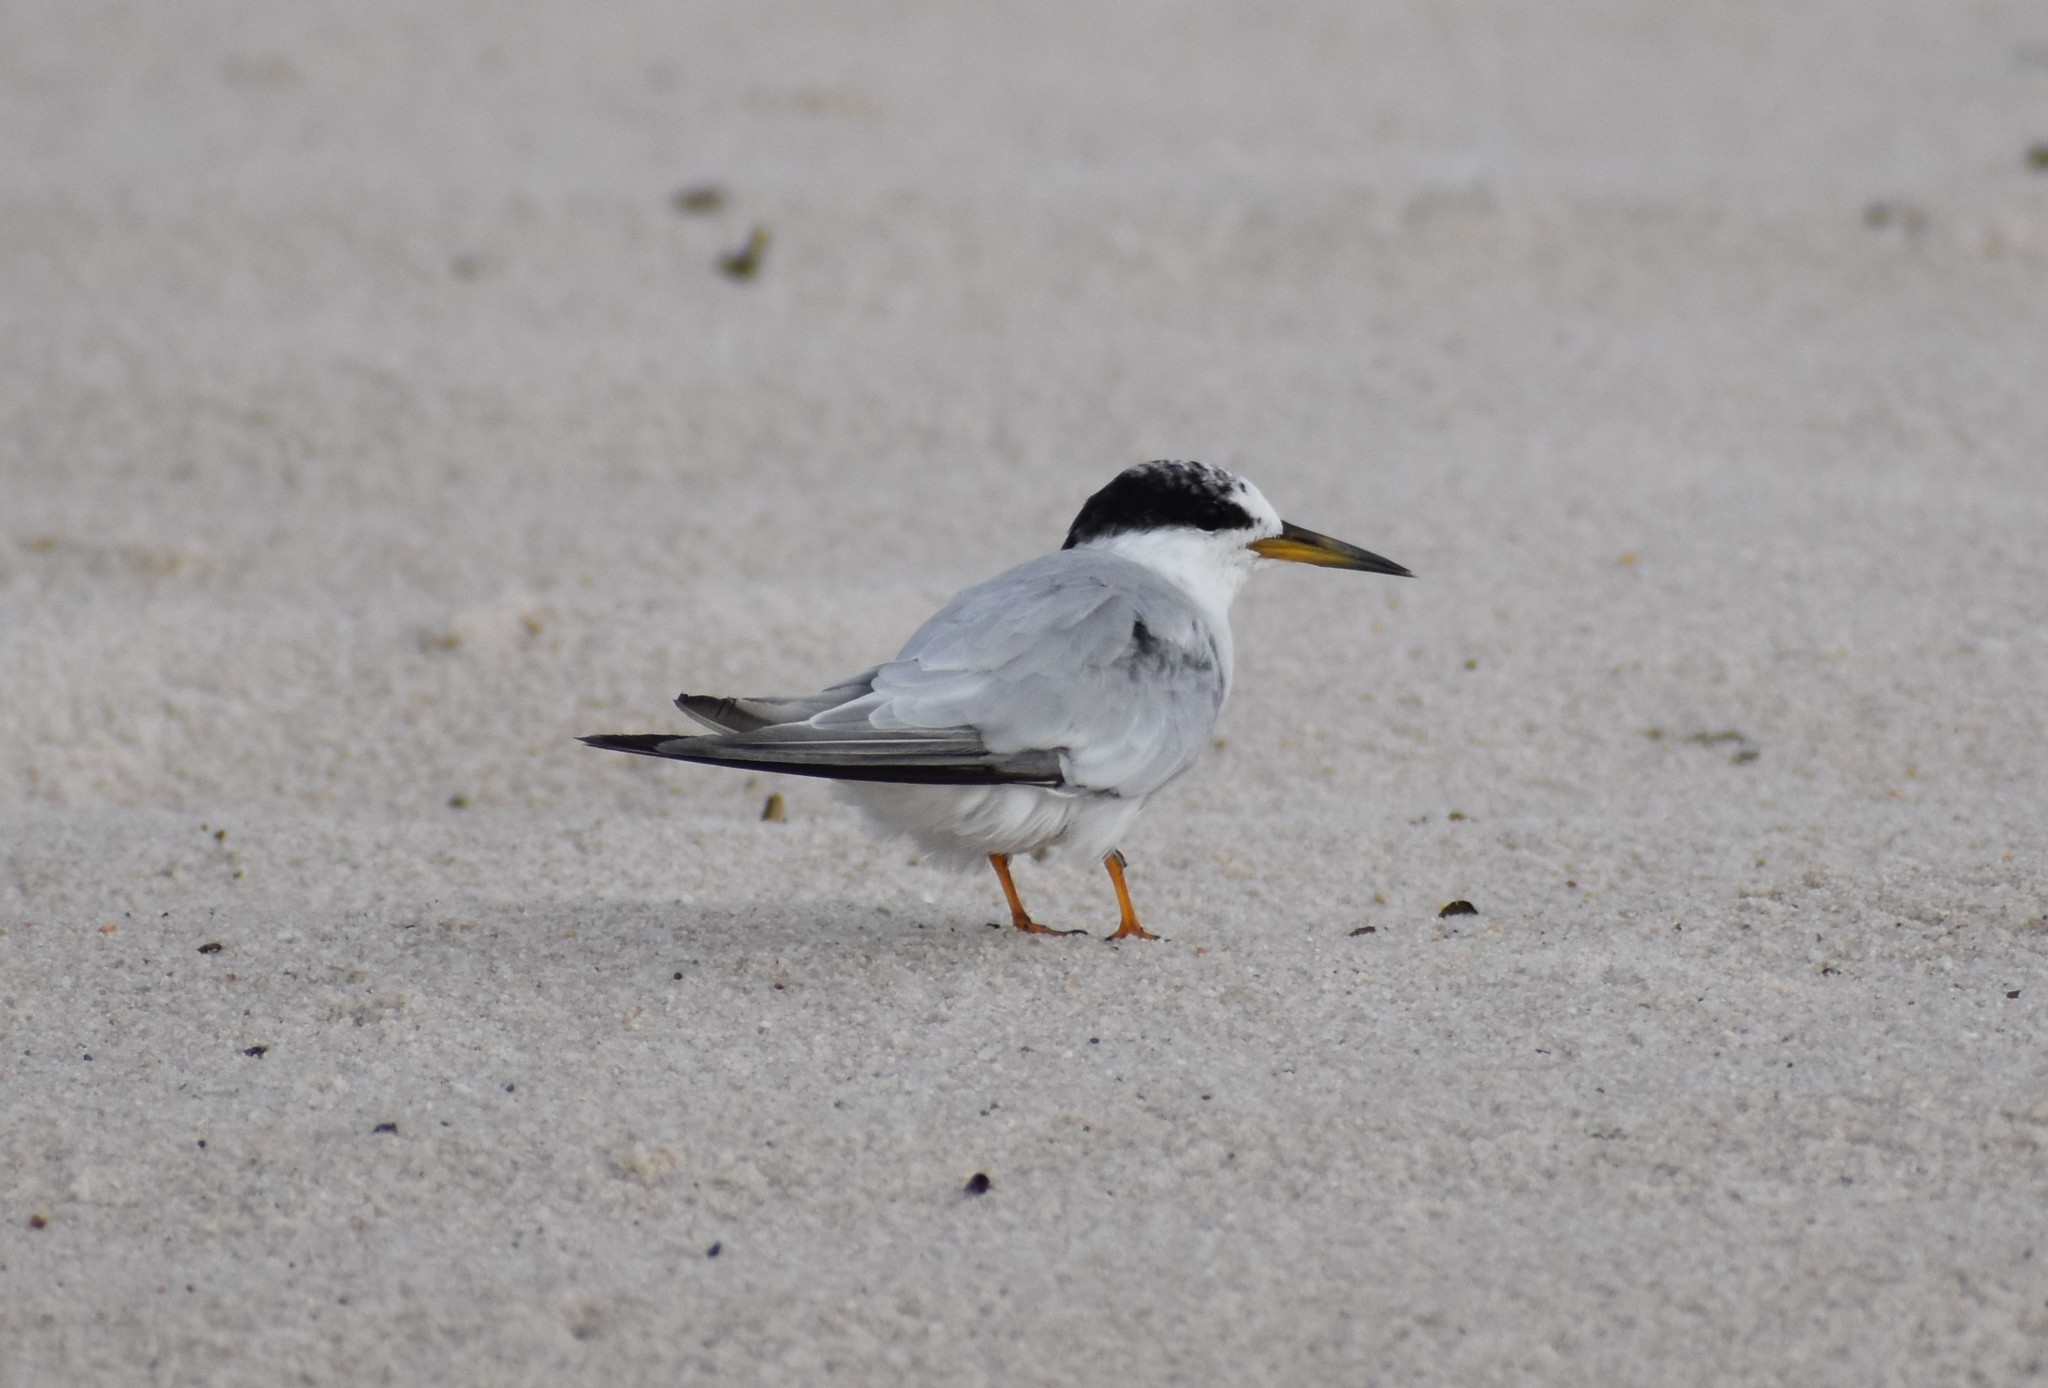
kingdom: Animalia
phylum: Chordata
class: Aves
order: Charadriiformes
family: Laridae
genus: Sternula
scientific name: Sternula antillarum
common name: Least tern
